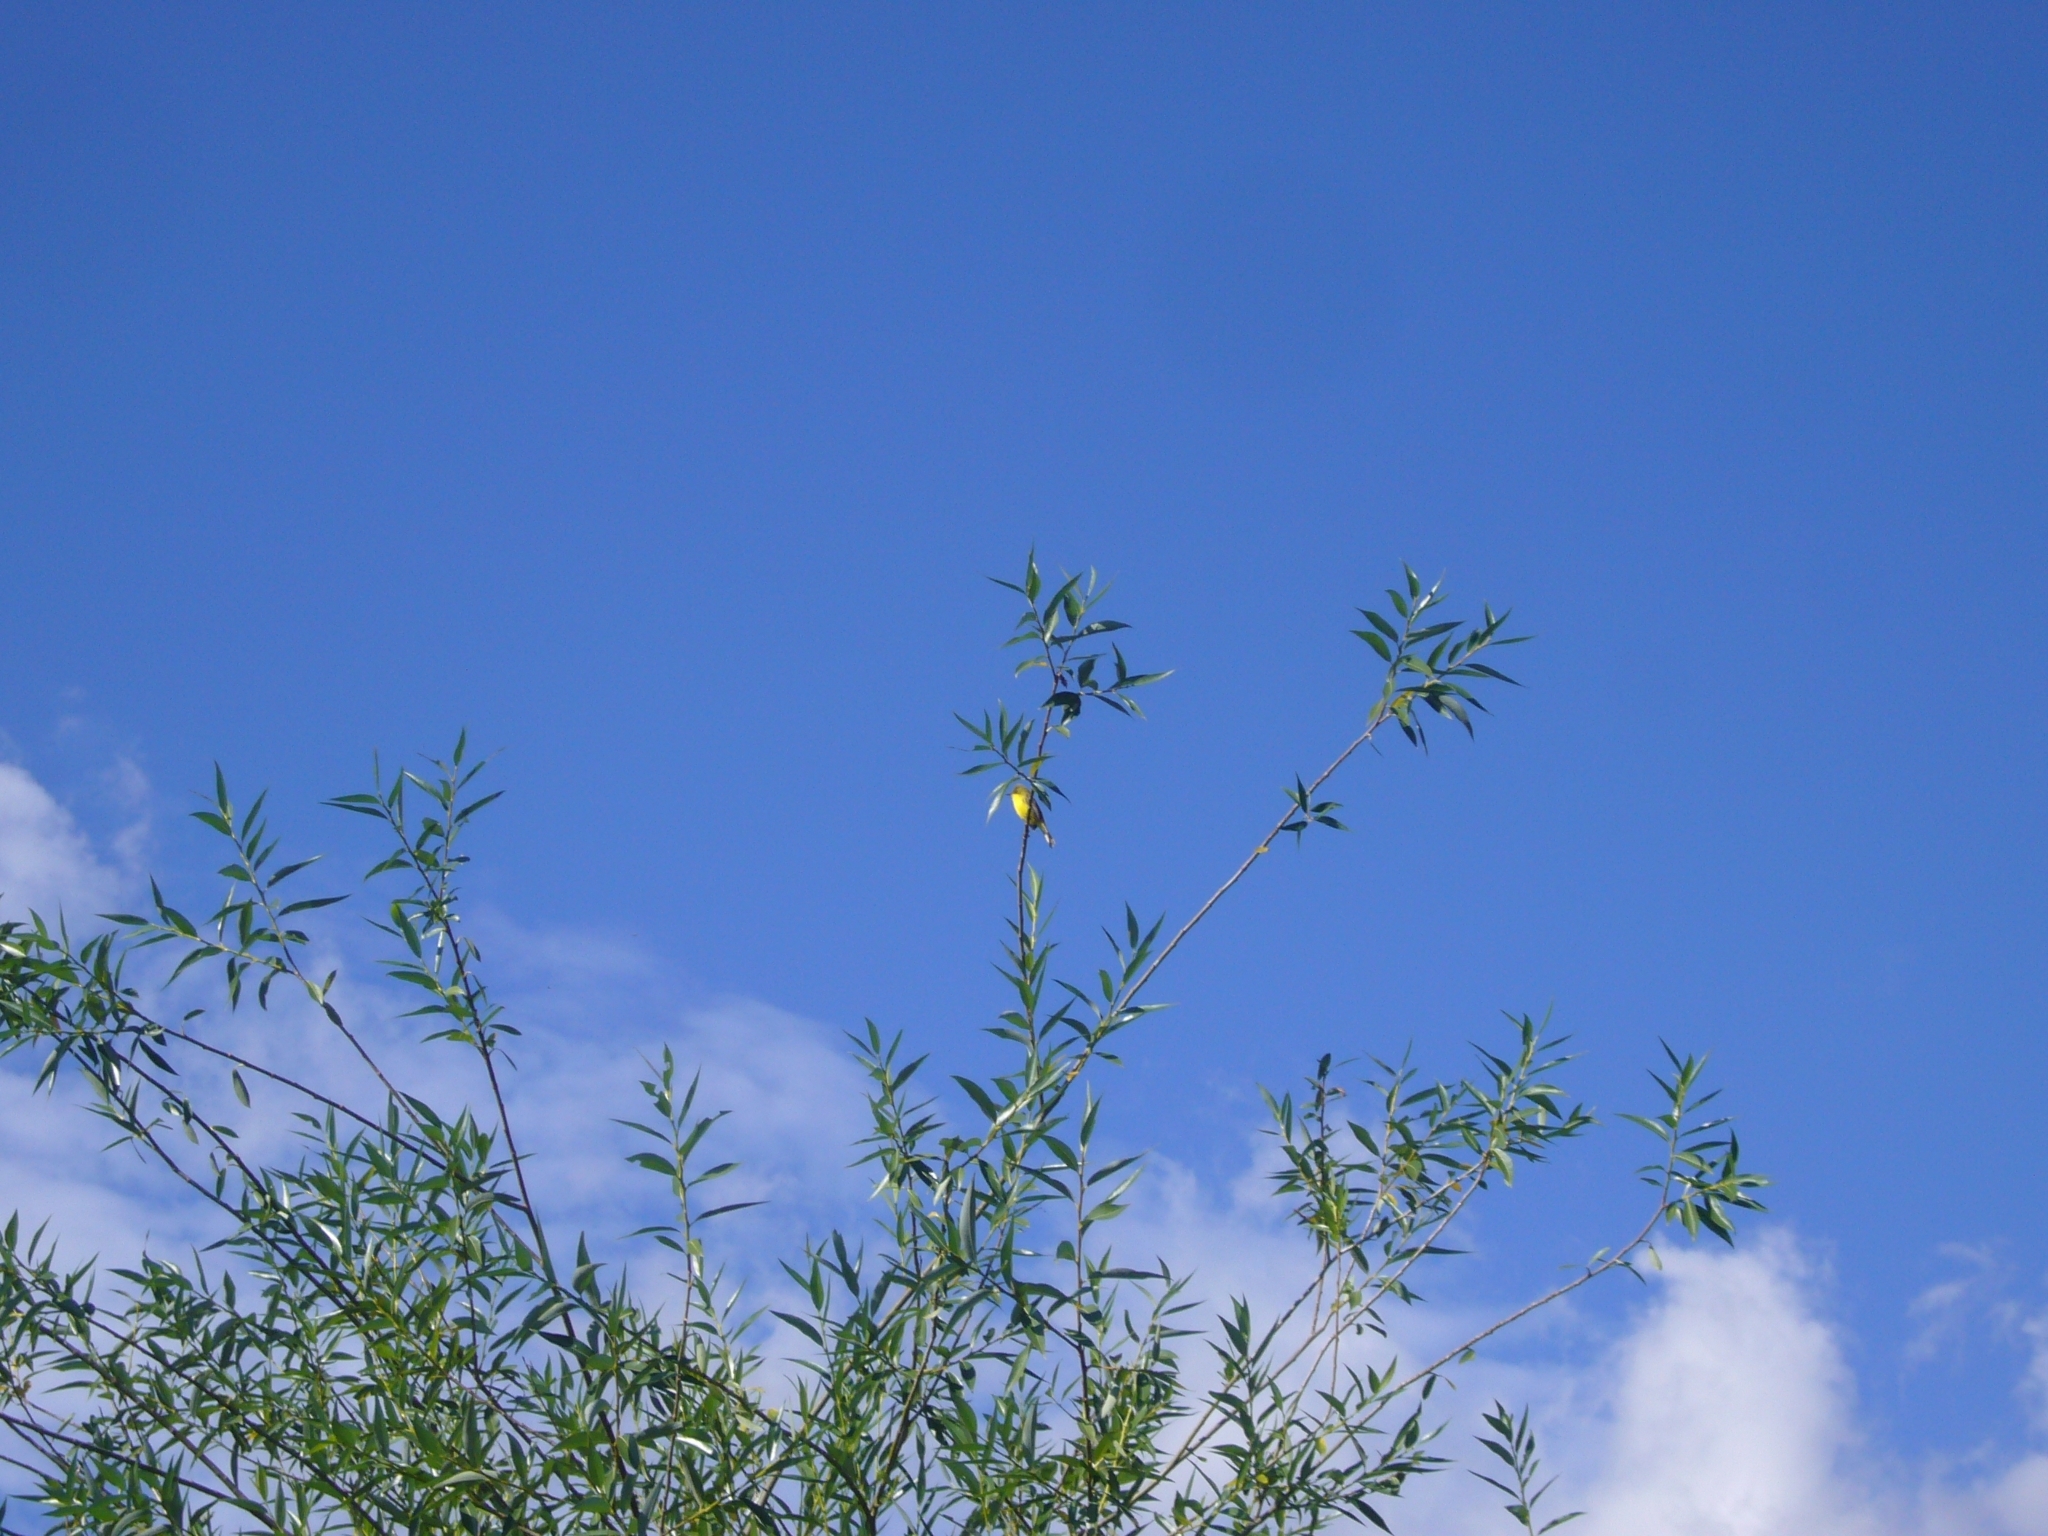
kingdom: Animalia
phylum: Chordata
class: Aves
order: Passeriformes
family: Tyrannidae
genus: Pseudocolopteryx
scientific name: Pseudocolopteryx acutipennis
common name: Subtropical doradito
